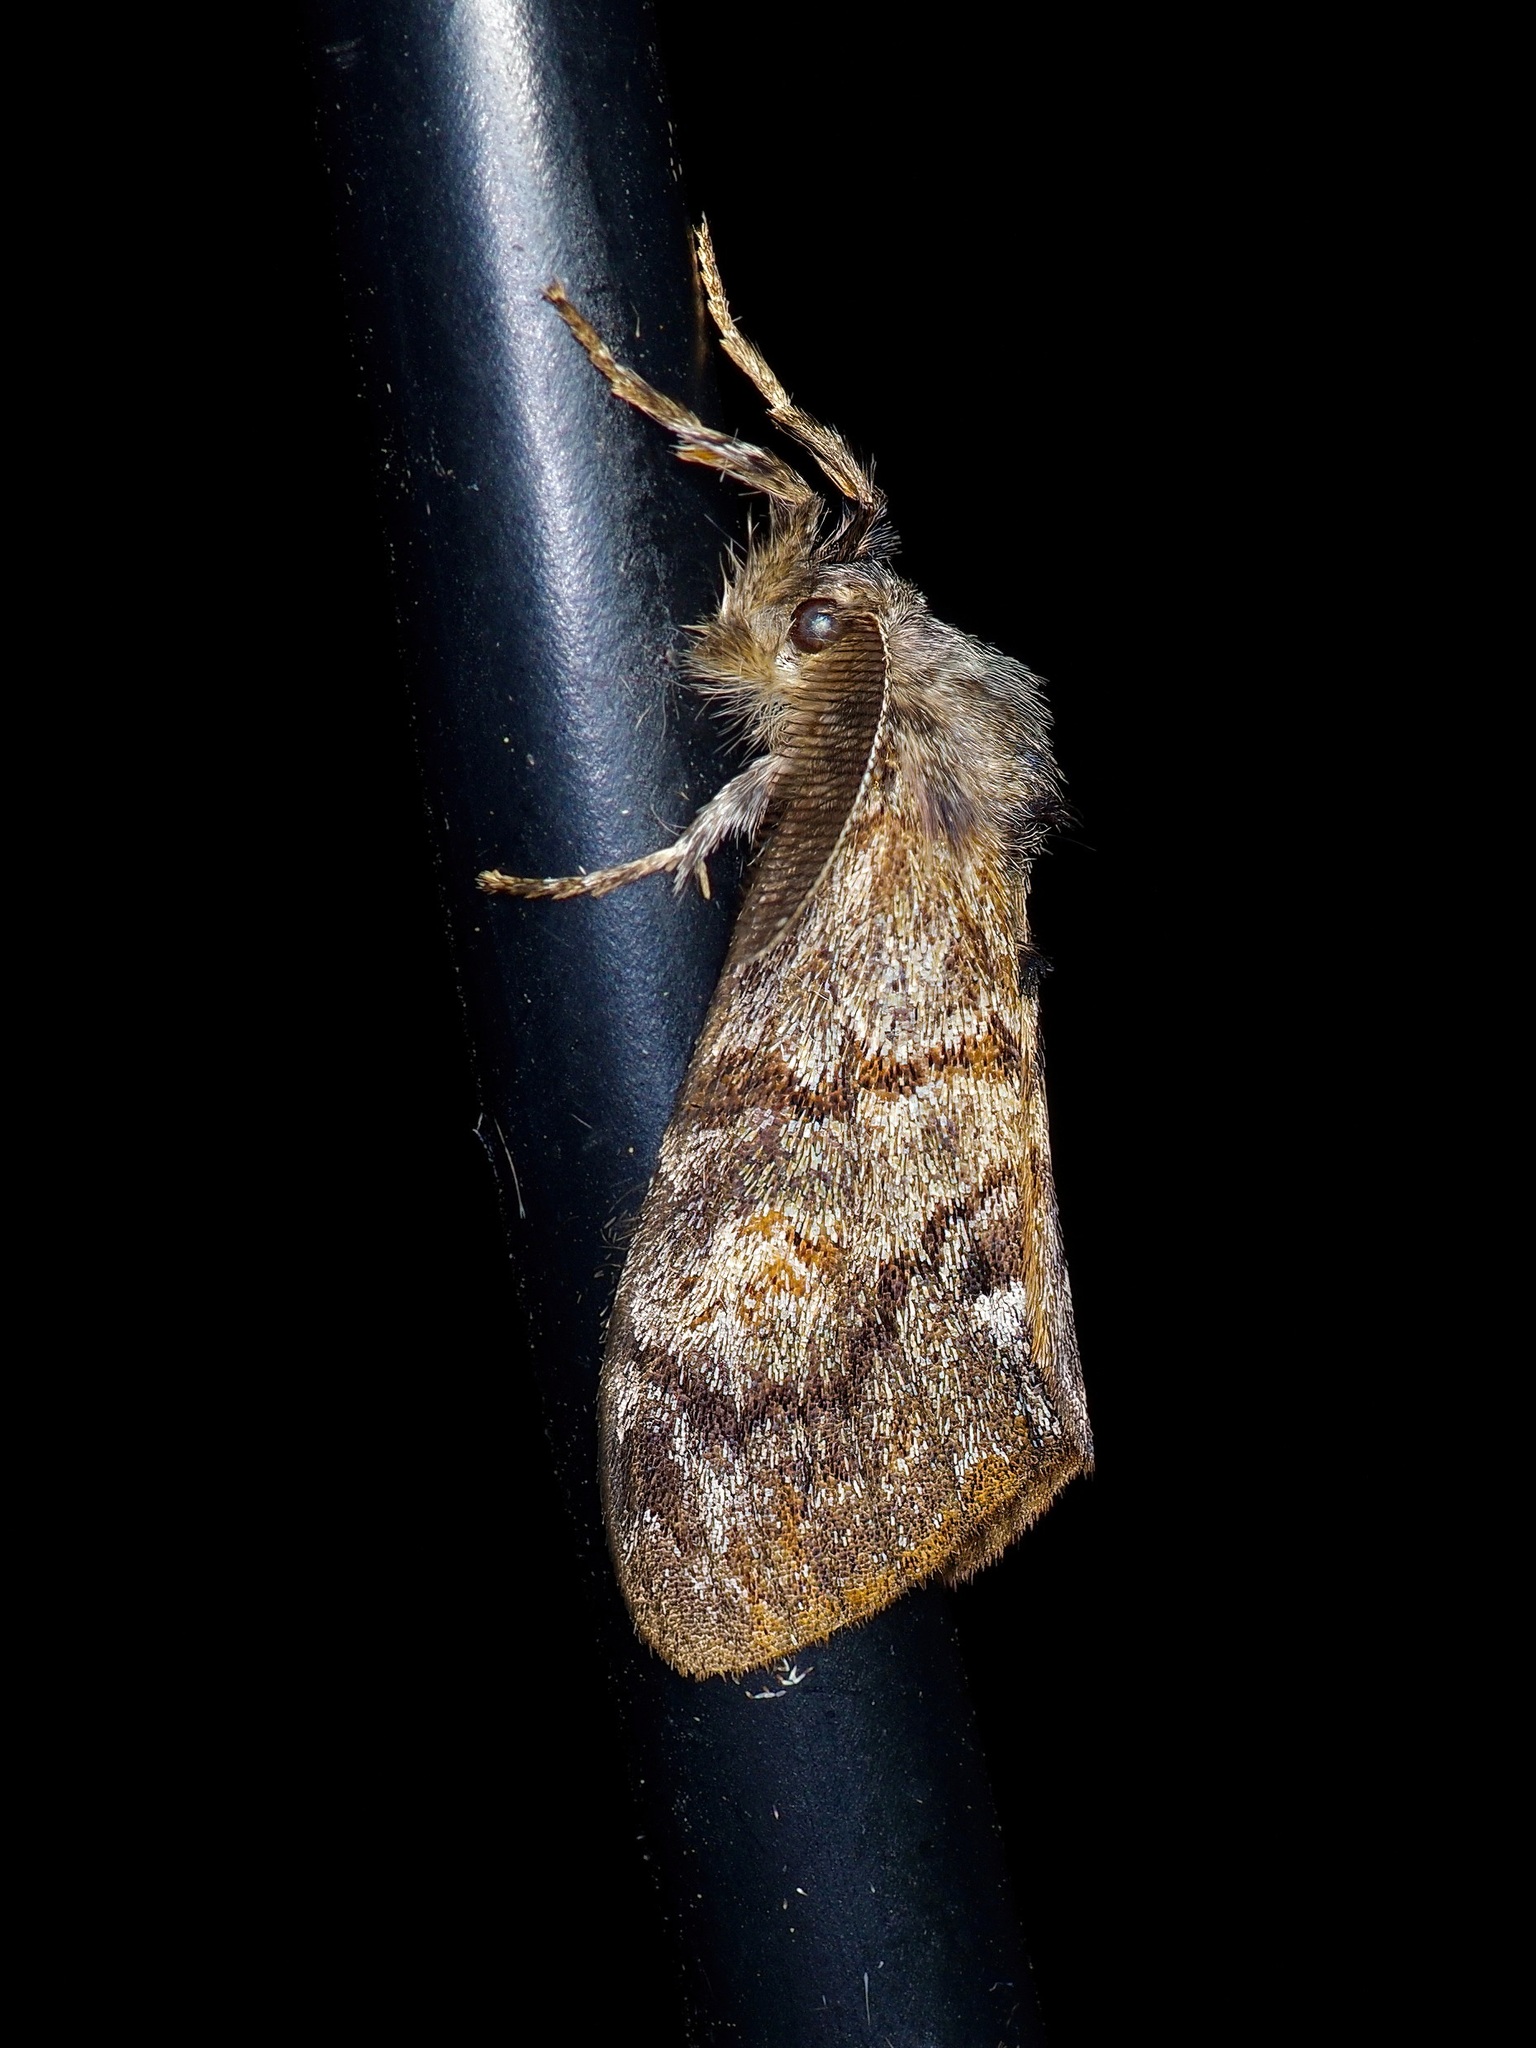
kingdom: Animalia
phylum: Arthropoda
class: Insecta
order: Lepidoptera
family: Erebidae
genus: Orgyia
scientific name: Orgyia pseudotsugata
